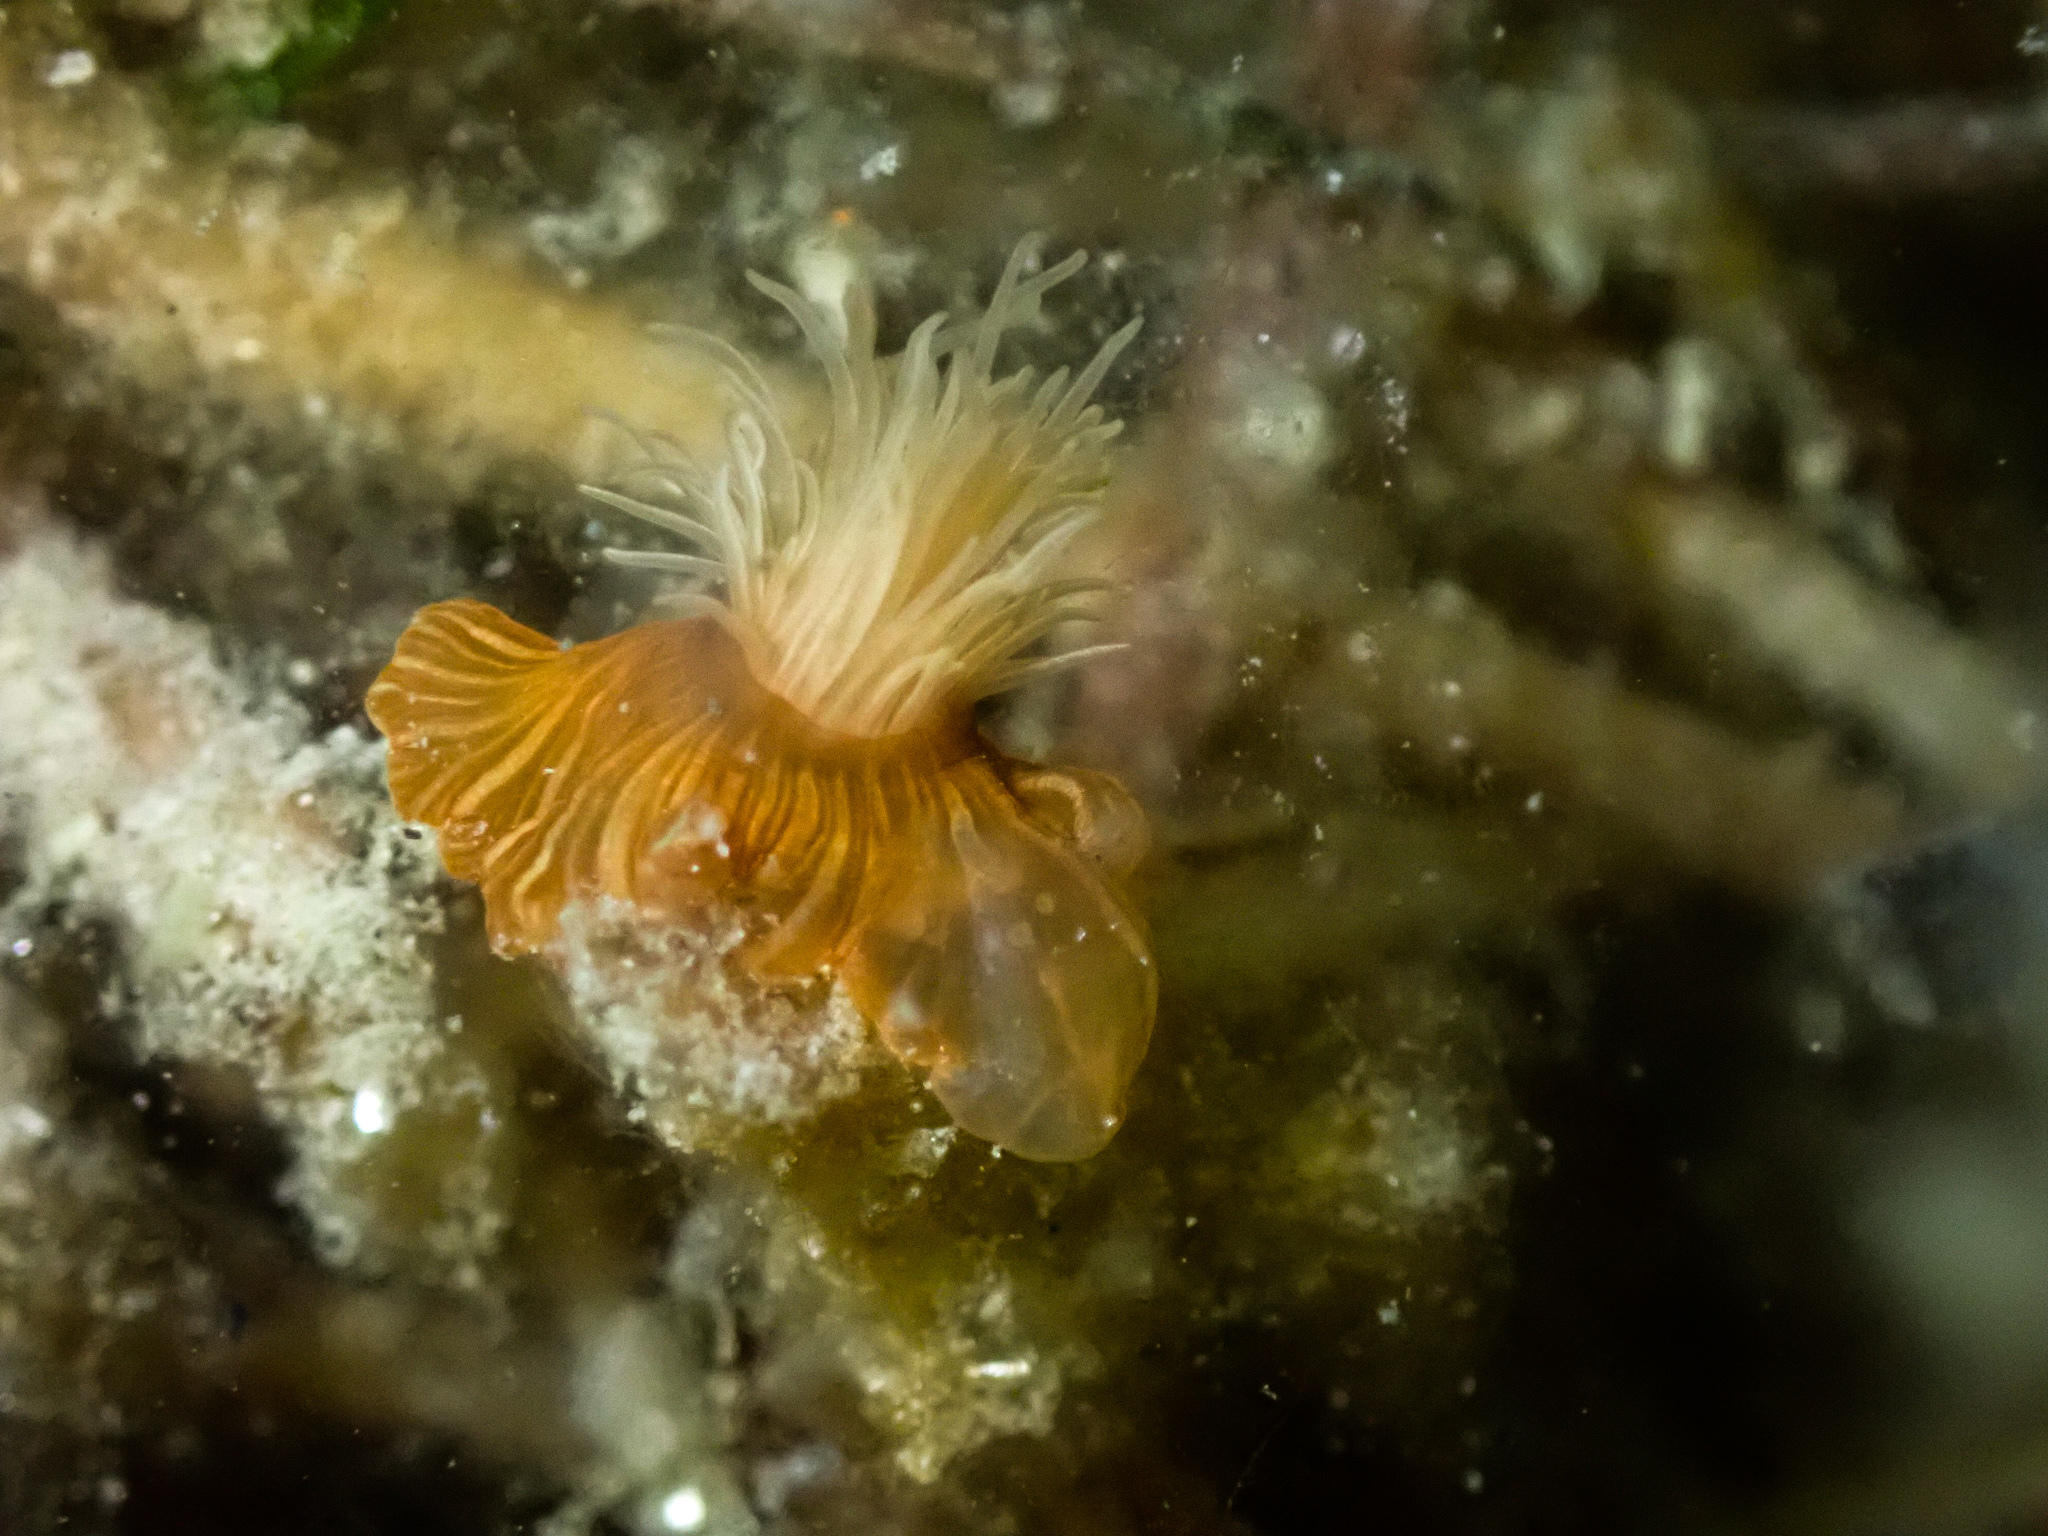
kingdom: Animalia
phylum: Cnidaria
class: Anthozoa
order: Actiniaria
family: Sagartiidae
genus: Sagartia
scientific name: Sagartia viduata
